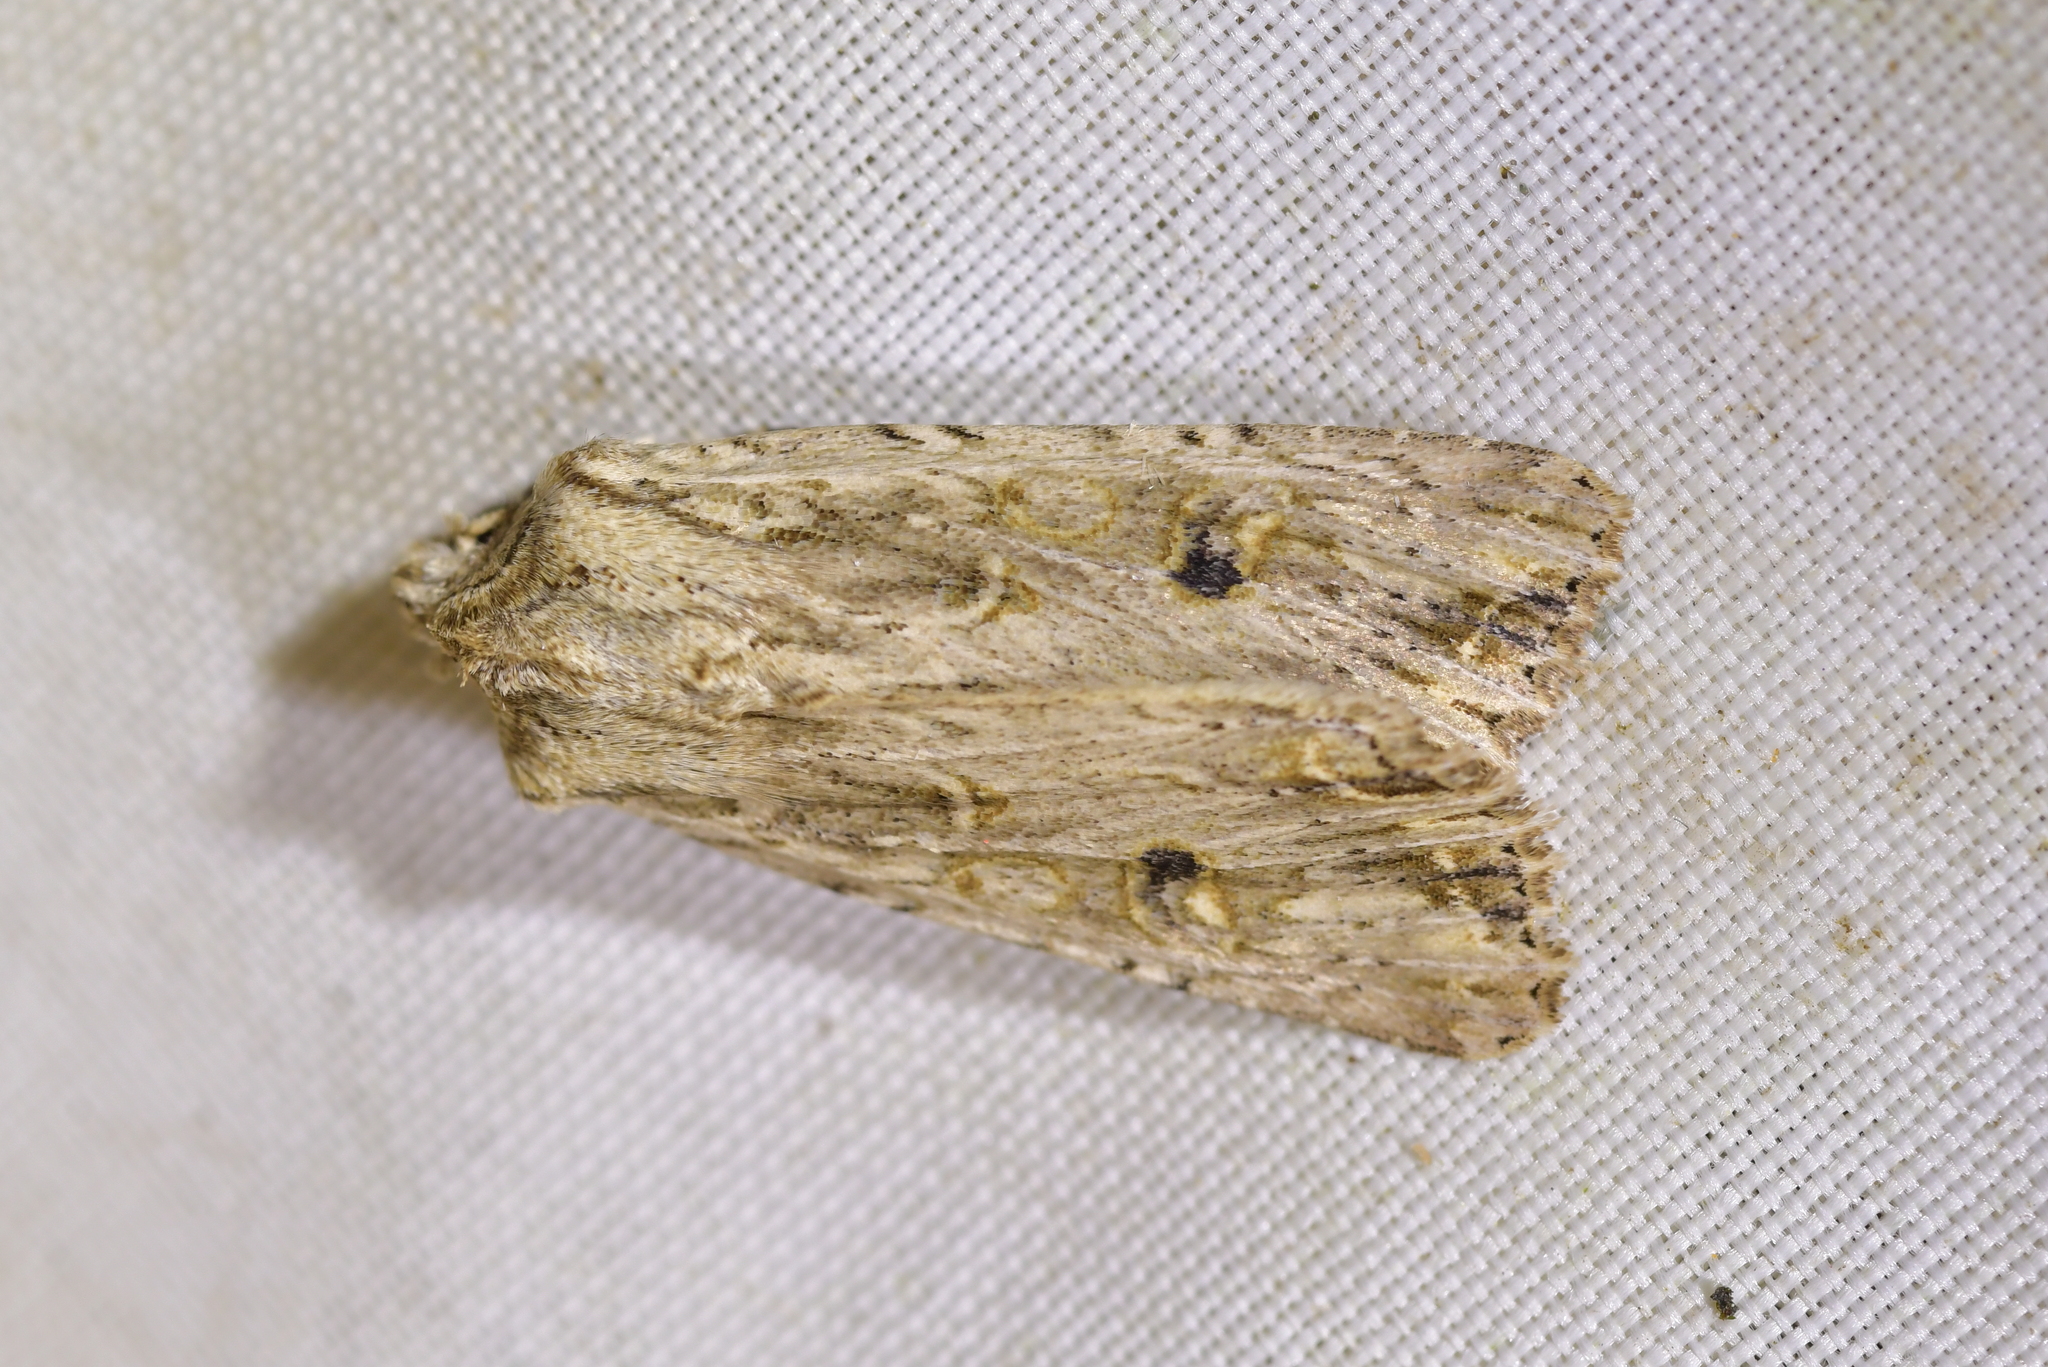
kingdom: Animalia
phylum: Arthropoda
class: Insecta
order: Lepidoptera
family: Noctuidae
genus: Ichneutica
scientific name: Ichneutica lignana
